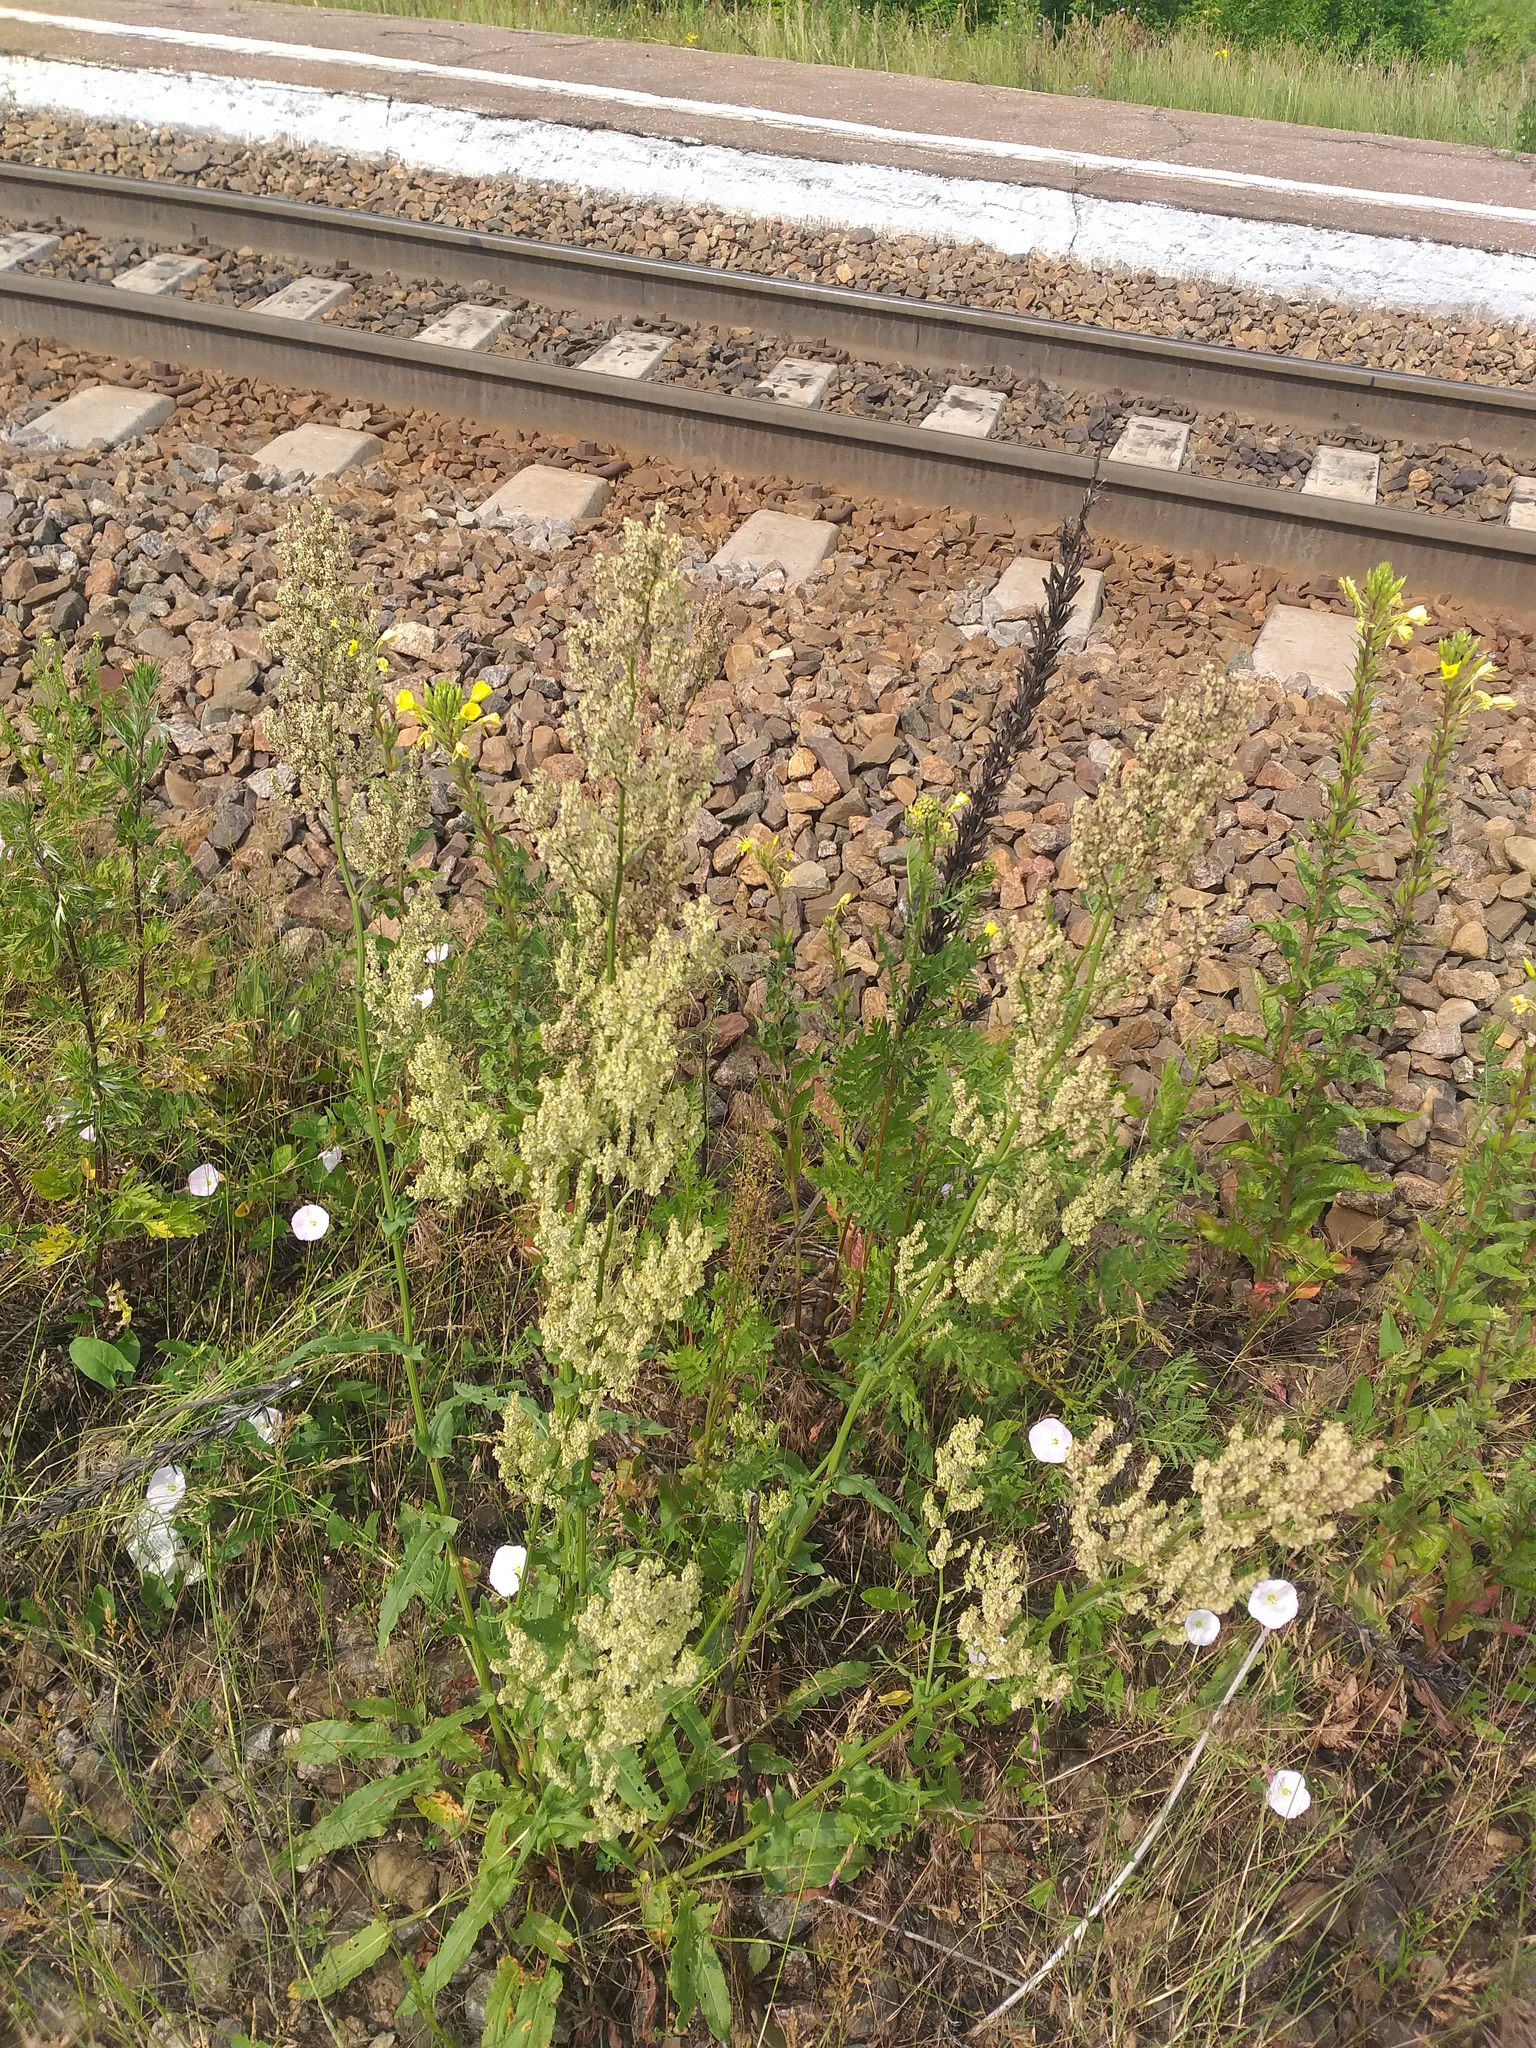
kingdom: Plantae
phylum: Tracheophyta
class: Magnoliopsida
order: Caryophyllales
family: Polygonaceae
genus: Rumex
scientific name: Rumex thyrsiflorus
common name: Garden sorrel
